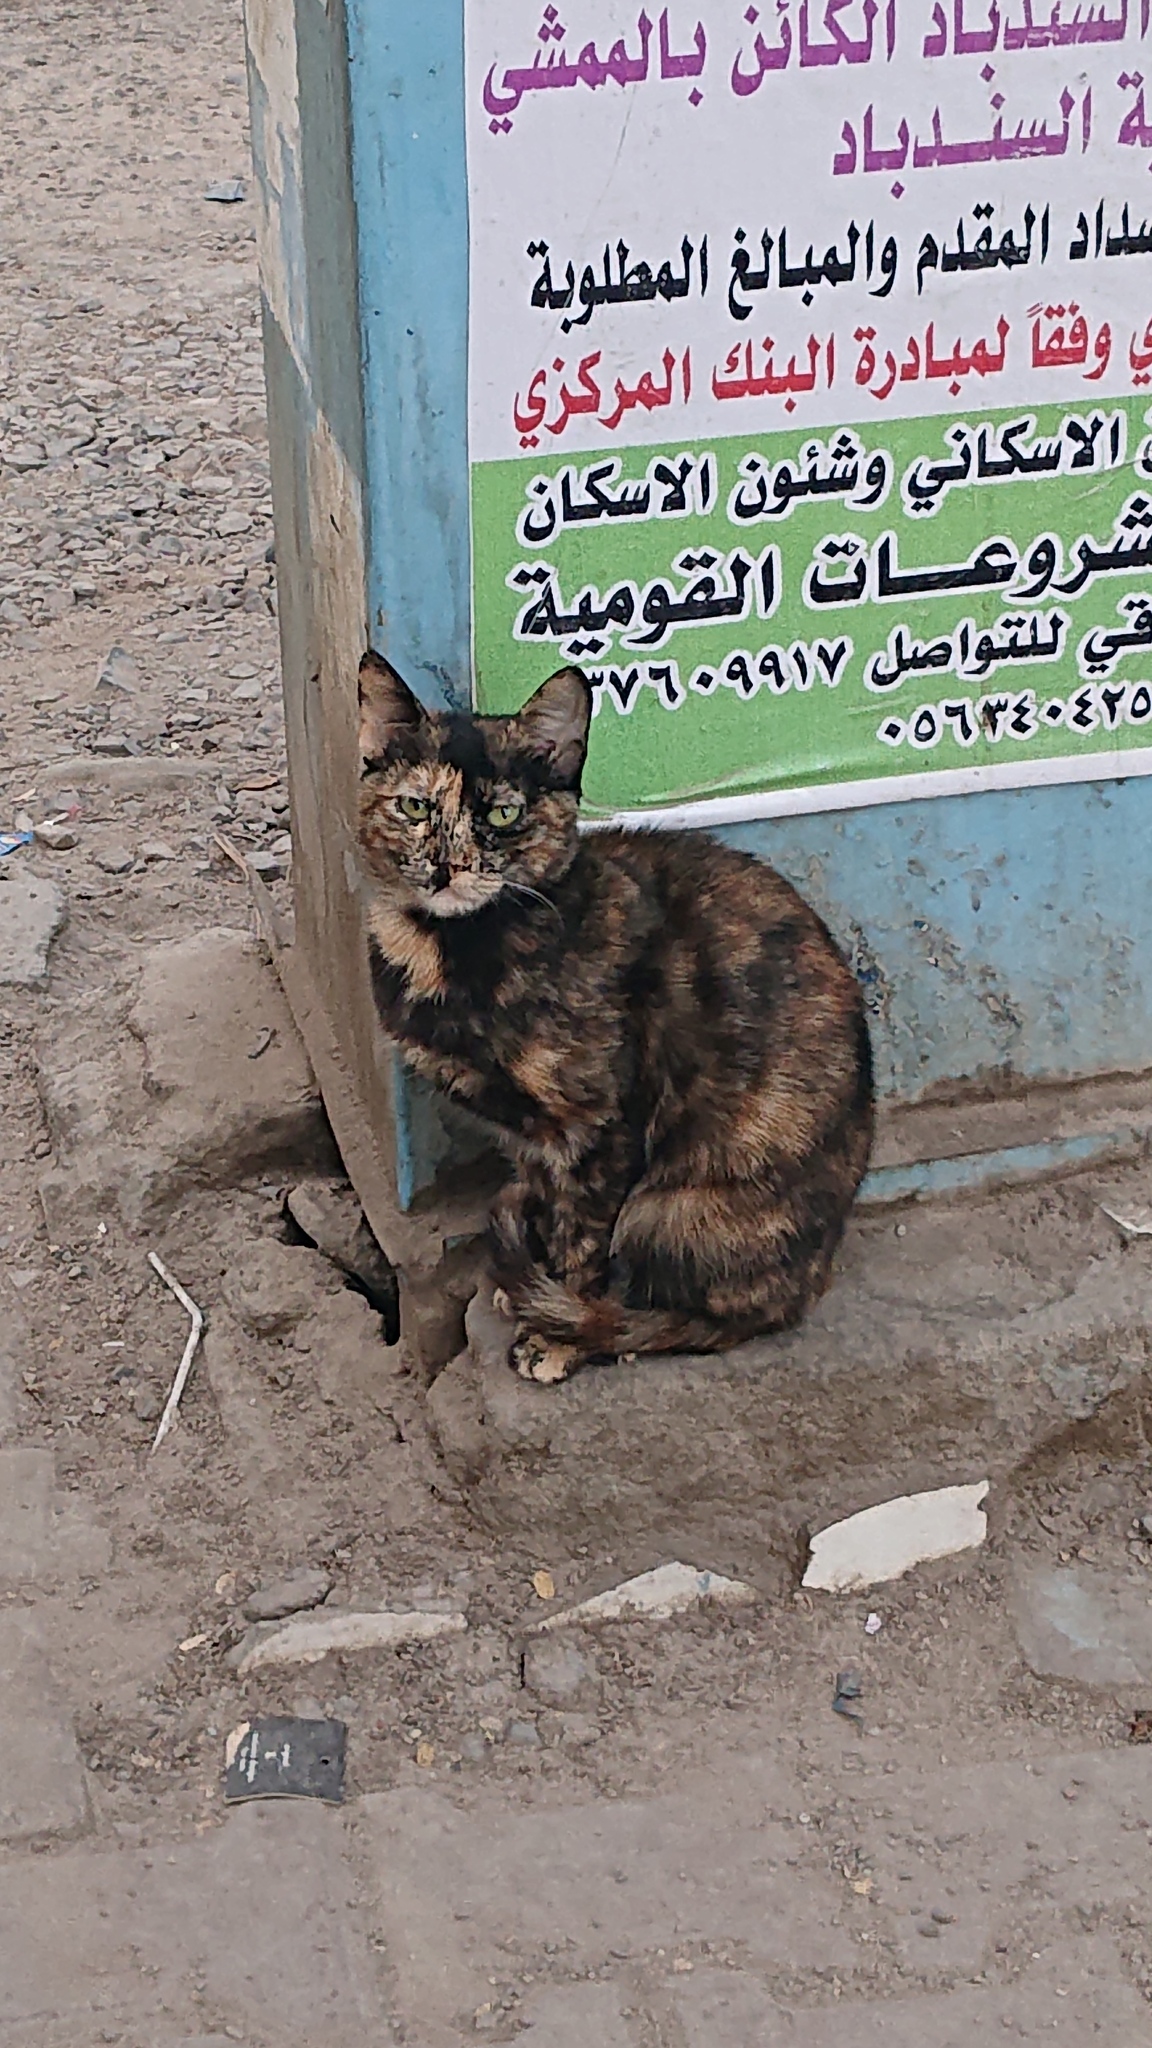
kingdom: Animalia
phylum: Chordata
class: Mammalia
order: Carnivora
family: Felidae
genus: Felis
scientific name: Felis catus
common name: Domestic cat
